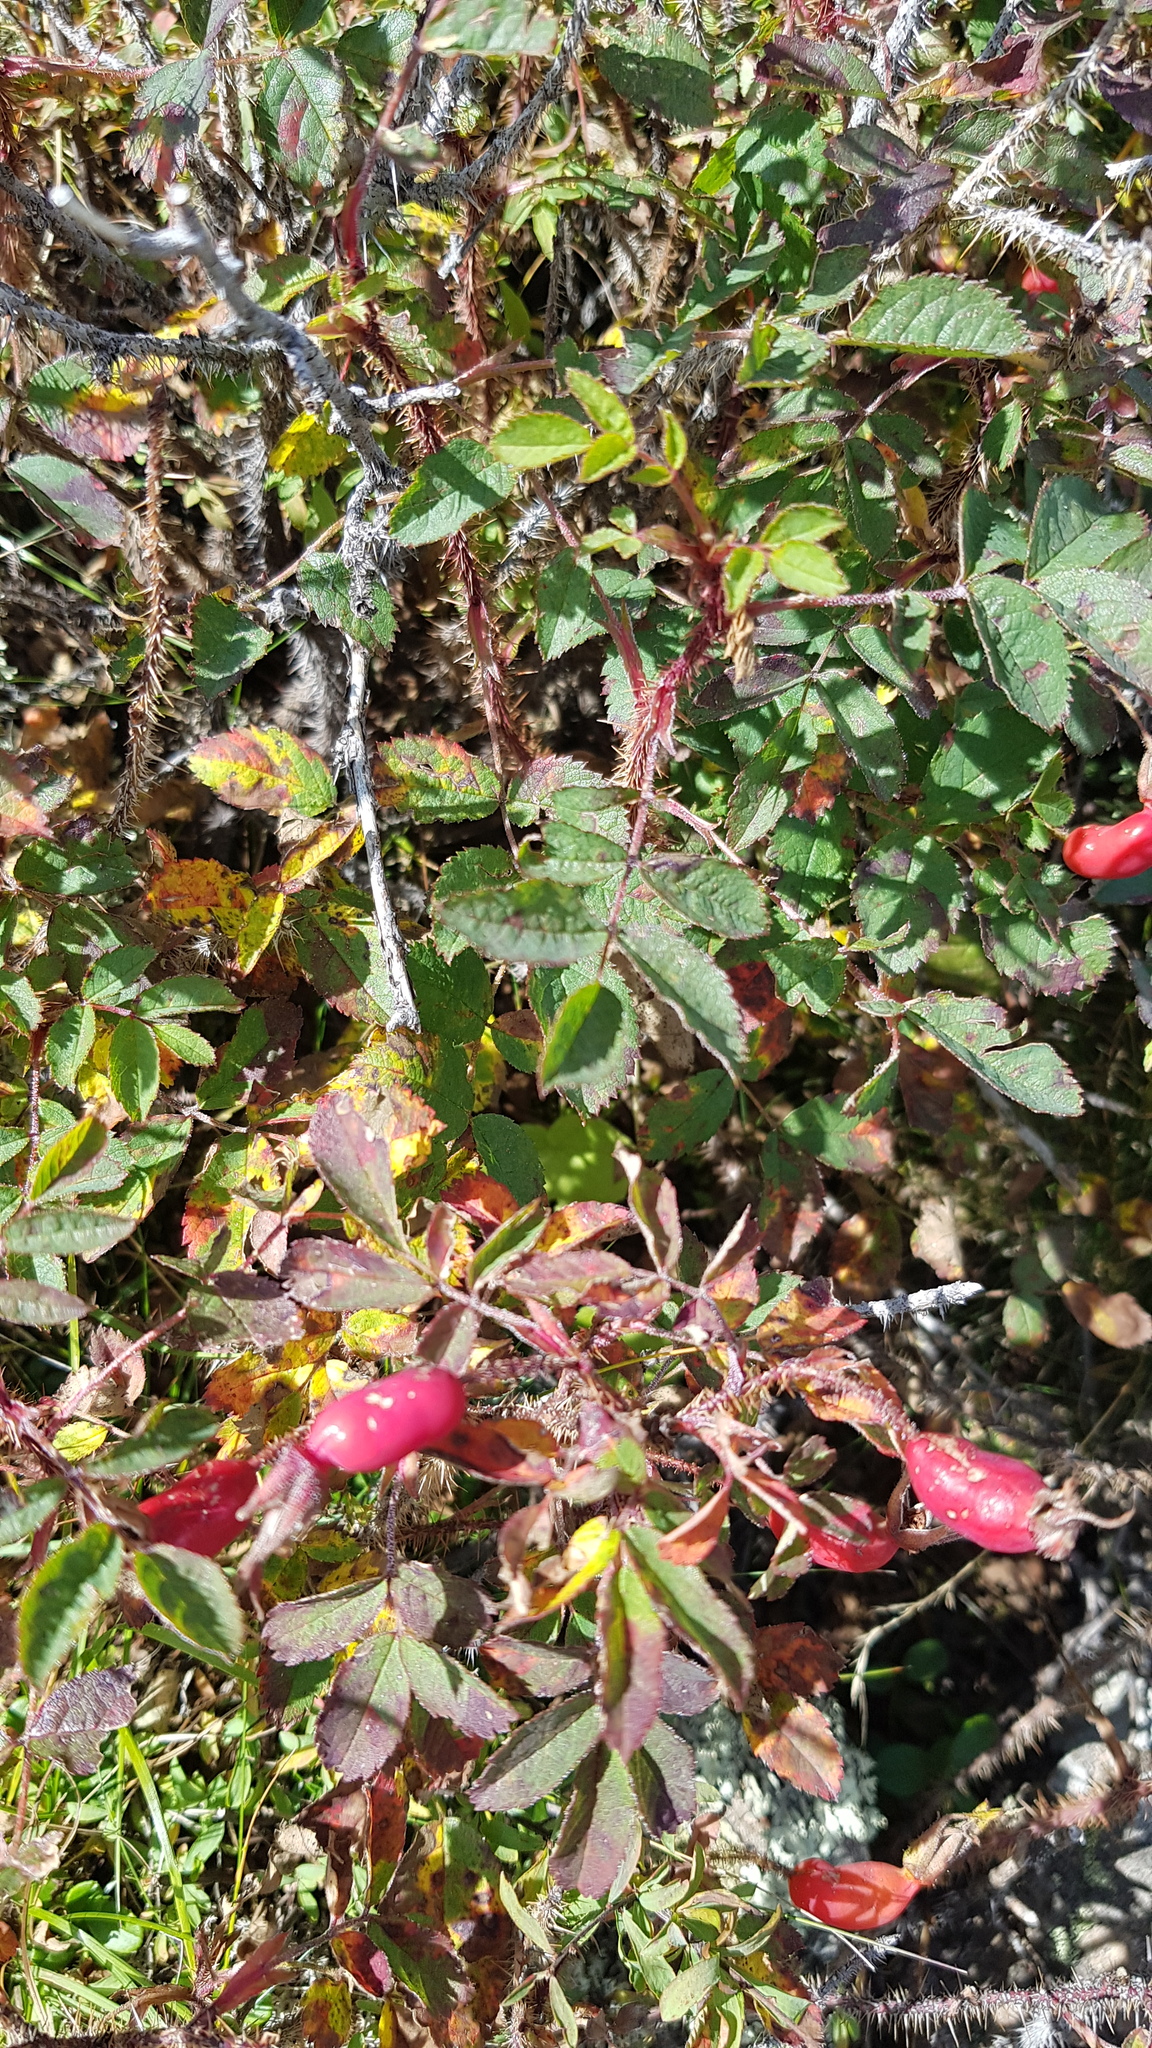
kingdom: Plantae
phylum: Tracheophyta
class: Magnoliopsida
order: Rosales
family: Rosaceae
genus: Rosa
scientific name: Rosa acicularis
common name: Prickly rose
